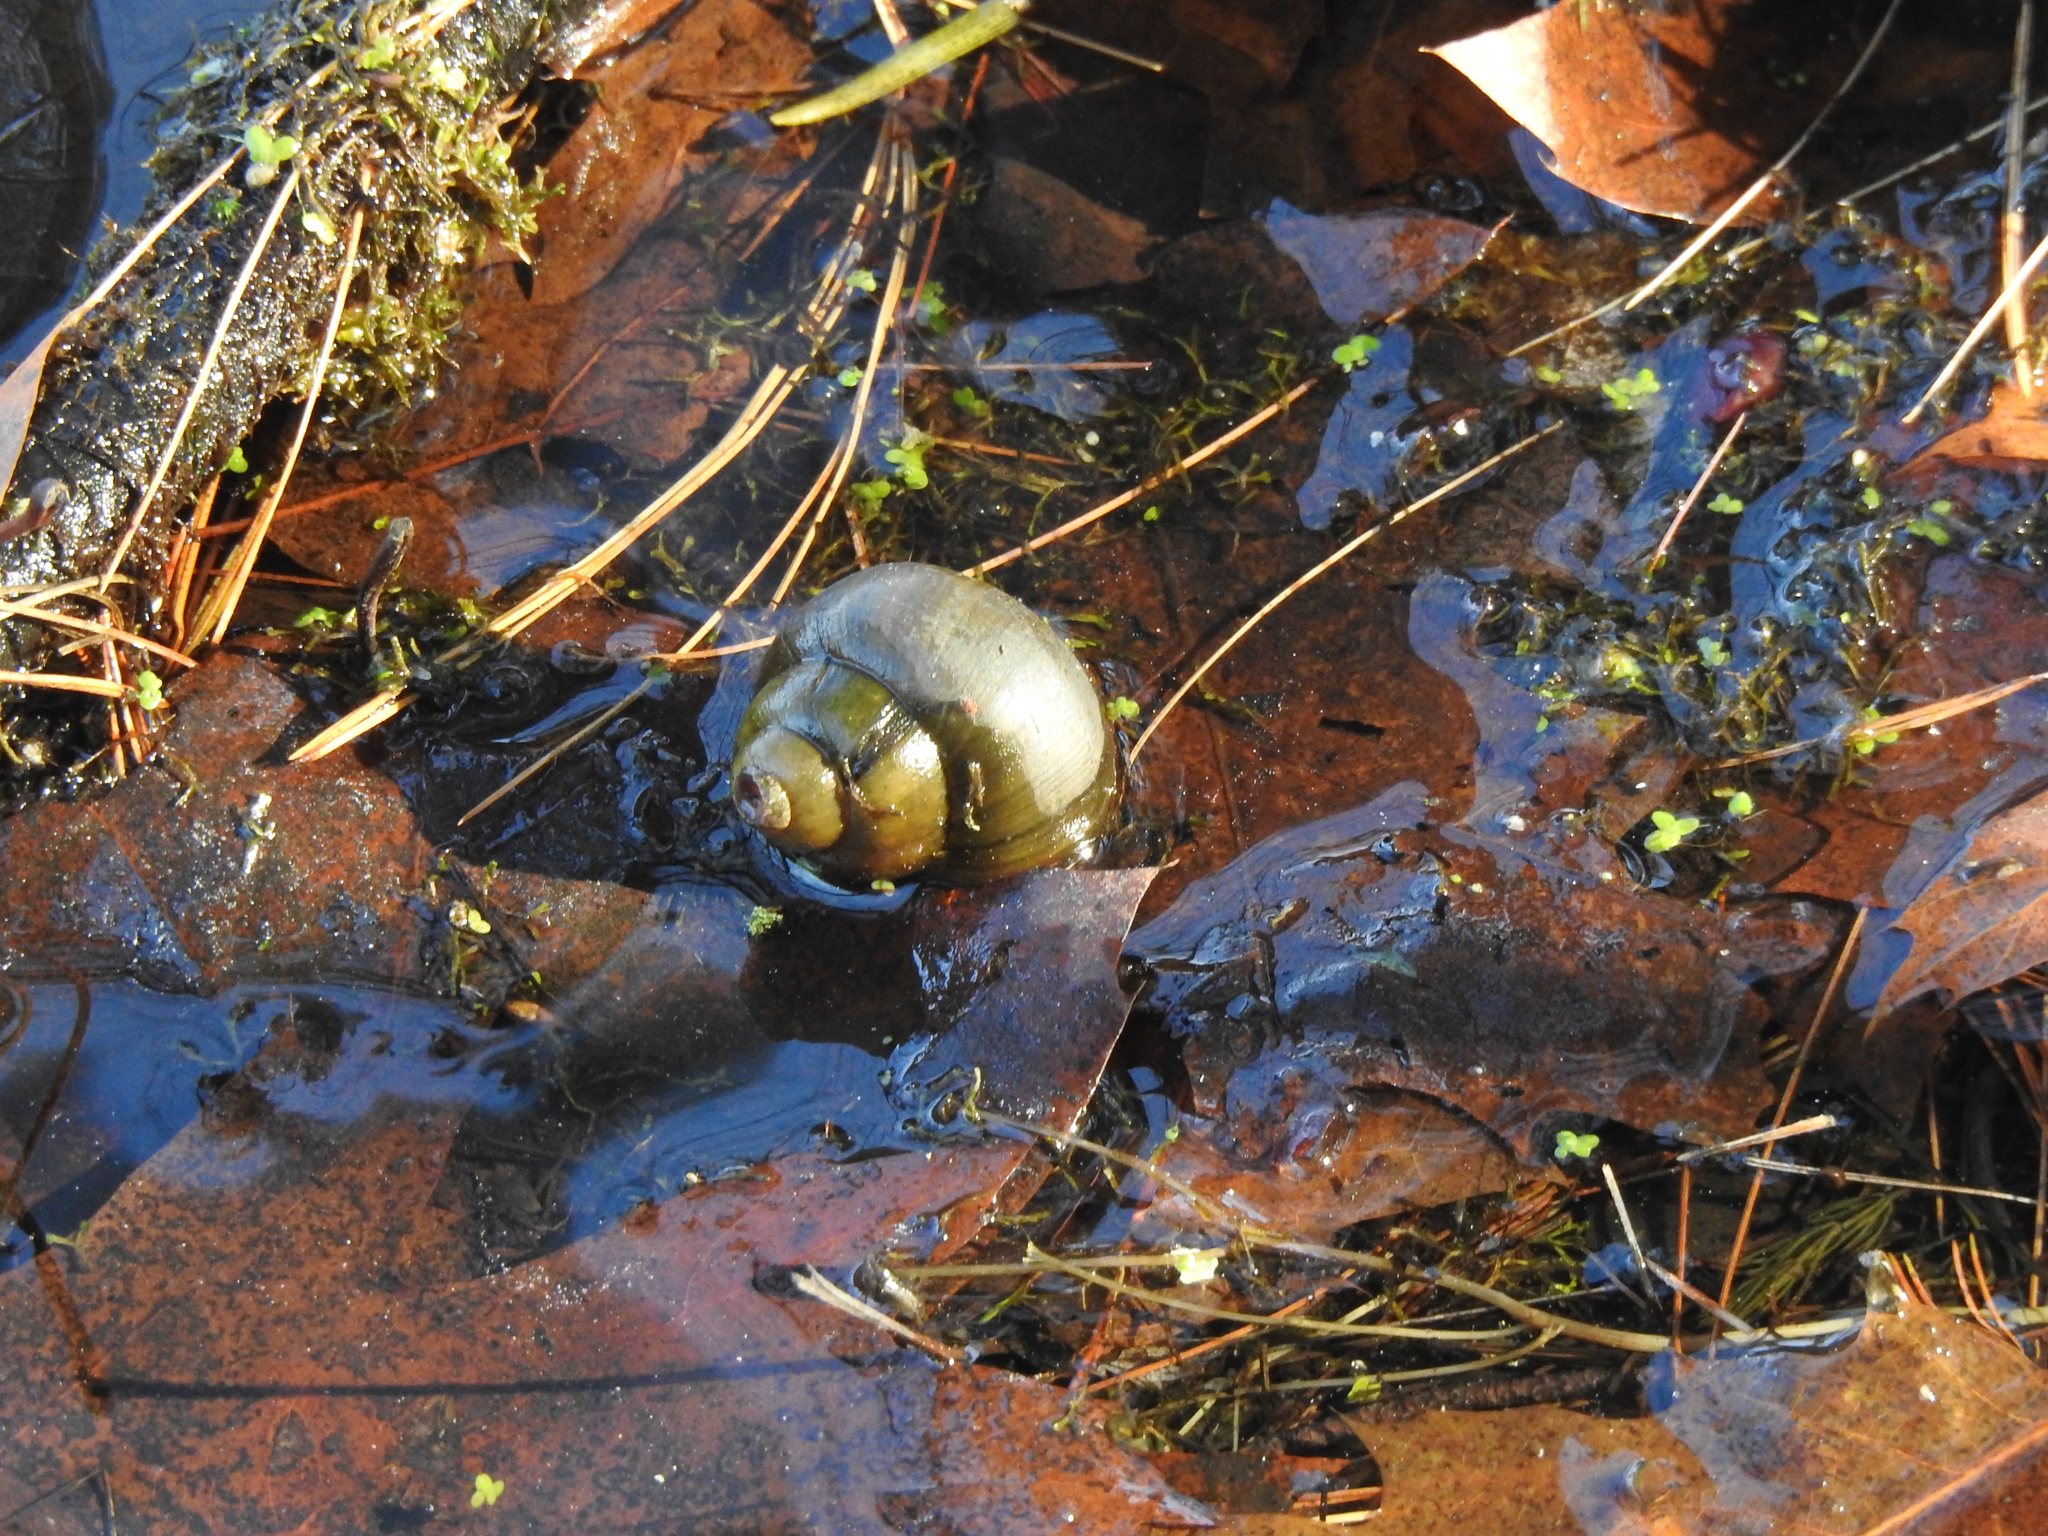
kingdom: Animalia
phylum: Mollusca
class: Gastropoda
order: Architaenioglossa
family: Viviparidae
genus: Cipangopaludina
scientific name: Cipangopaludina chinensis
